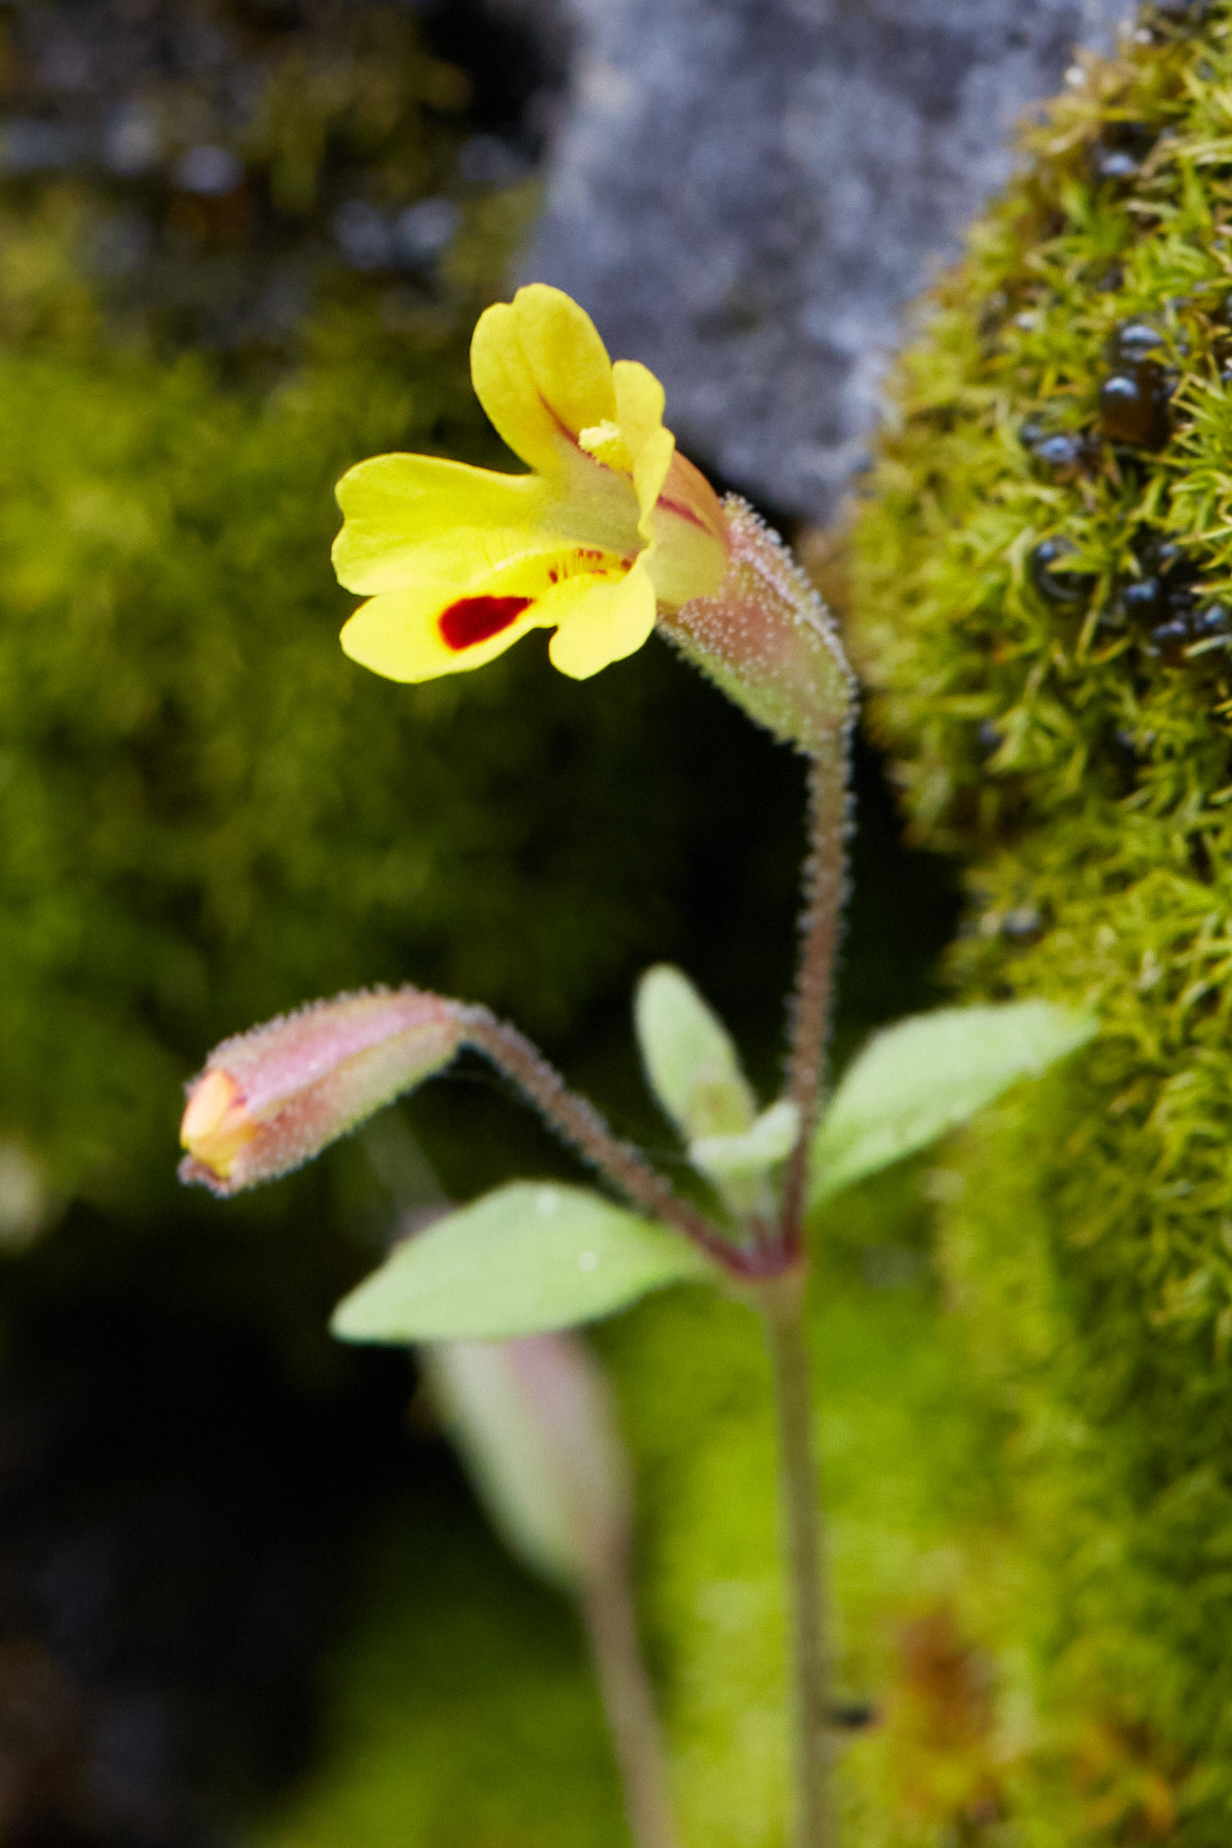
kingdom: Plantae
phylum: Tracheophyta
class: Magnoliopsida
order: Lamiales
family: Phrymaceae
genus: Erythranthe
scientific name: Erythranthe alsinoides
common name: Chickweed monkeyflower
